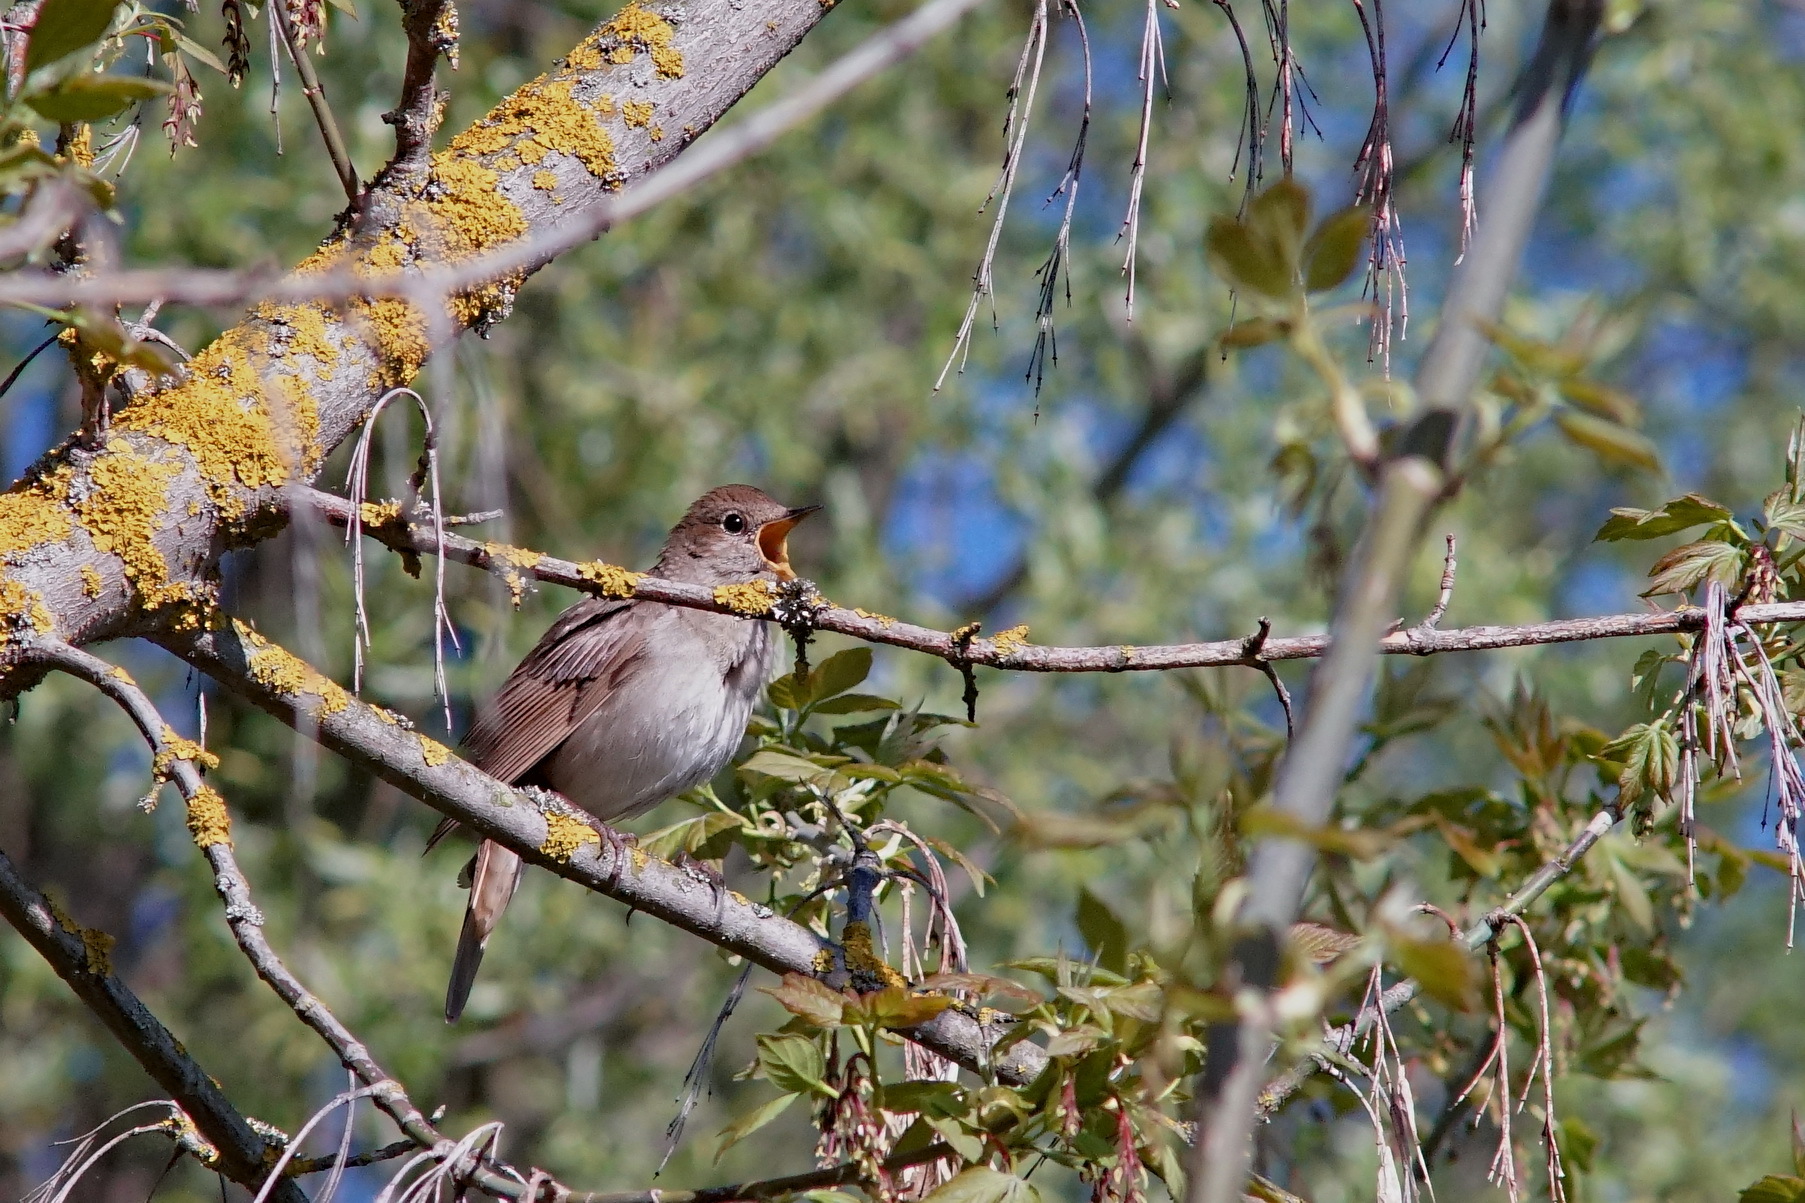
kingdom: Animalia
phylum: Chordata
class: Aves
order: Passeriformes
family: Muscicapidae
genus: Luscinia
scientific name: Luscinia luscinia
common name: Thrush nightingale
